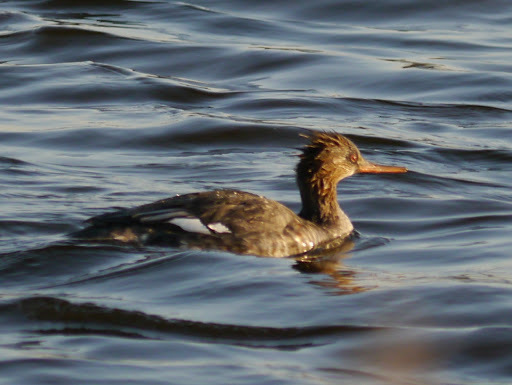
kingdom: Animalia
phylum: Chordata
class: Aves
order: Anseriformes
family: Anatidae
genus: Mergus
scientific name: Mergus serrator
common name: Red-breasted merganser
